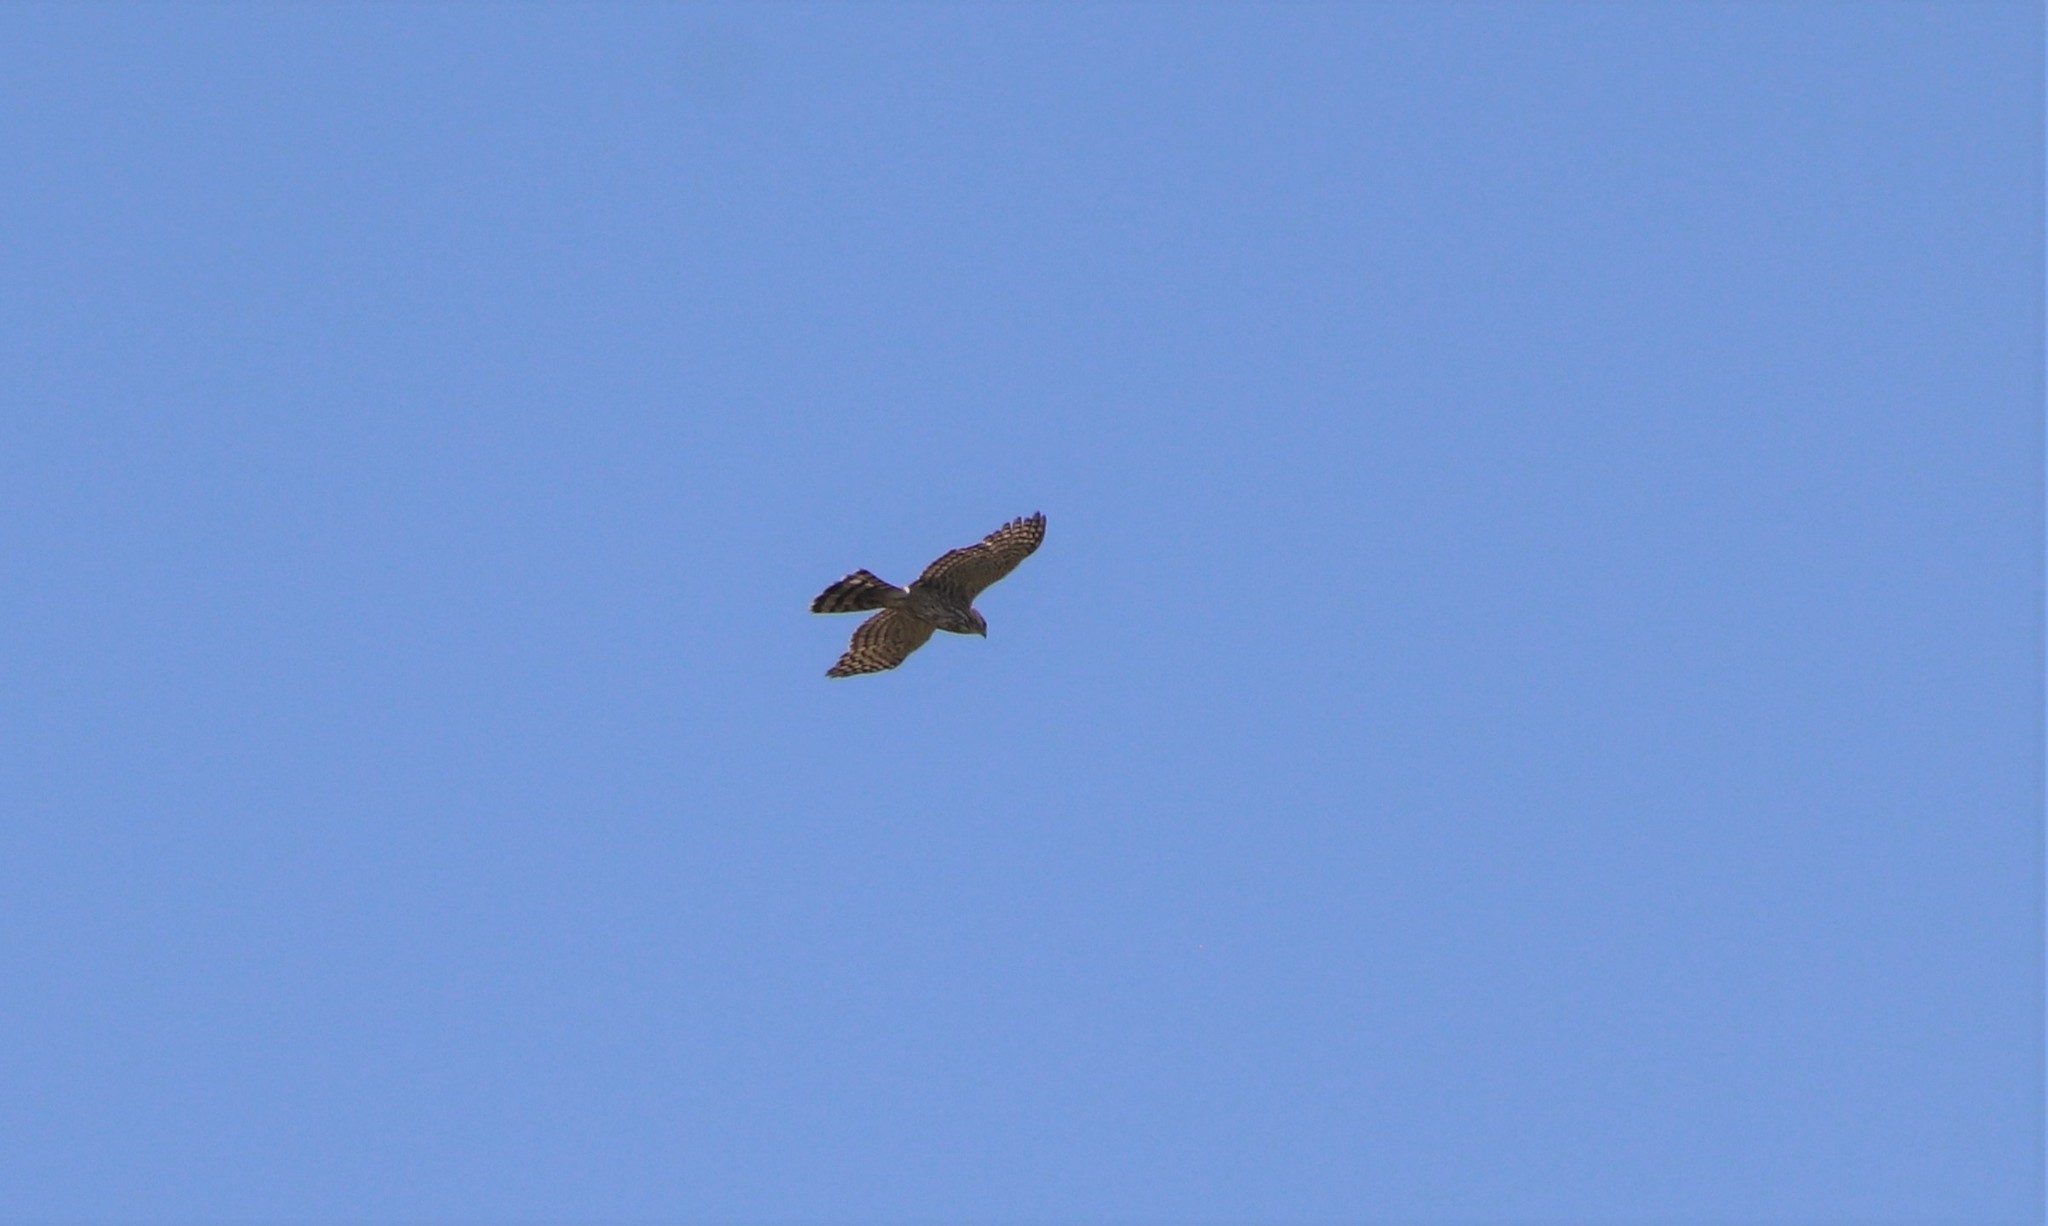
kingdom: Animalia
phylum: Chordata
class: Aves
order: Accipitriformes
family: Accipitridae
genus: Accipiter
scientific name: Accipiter cooperii
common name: Cooper's hawk
